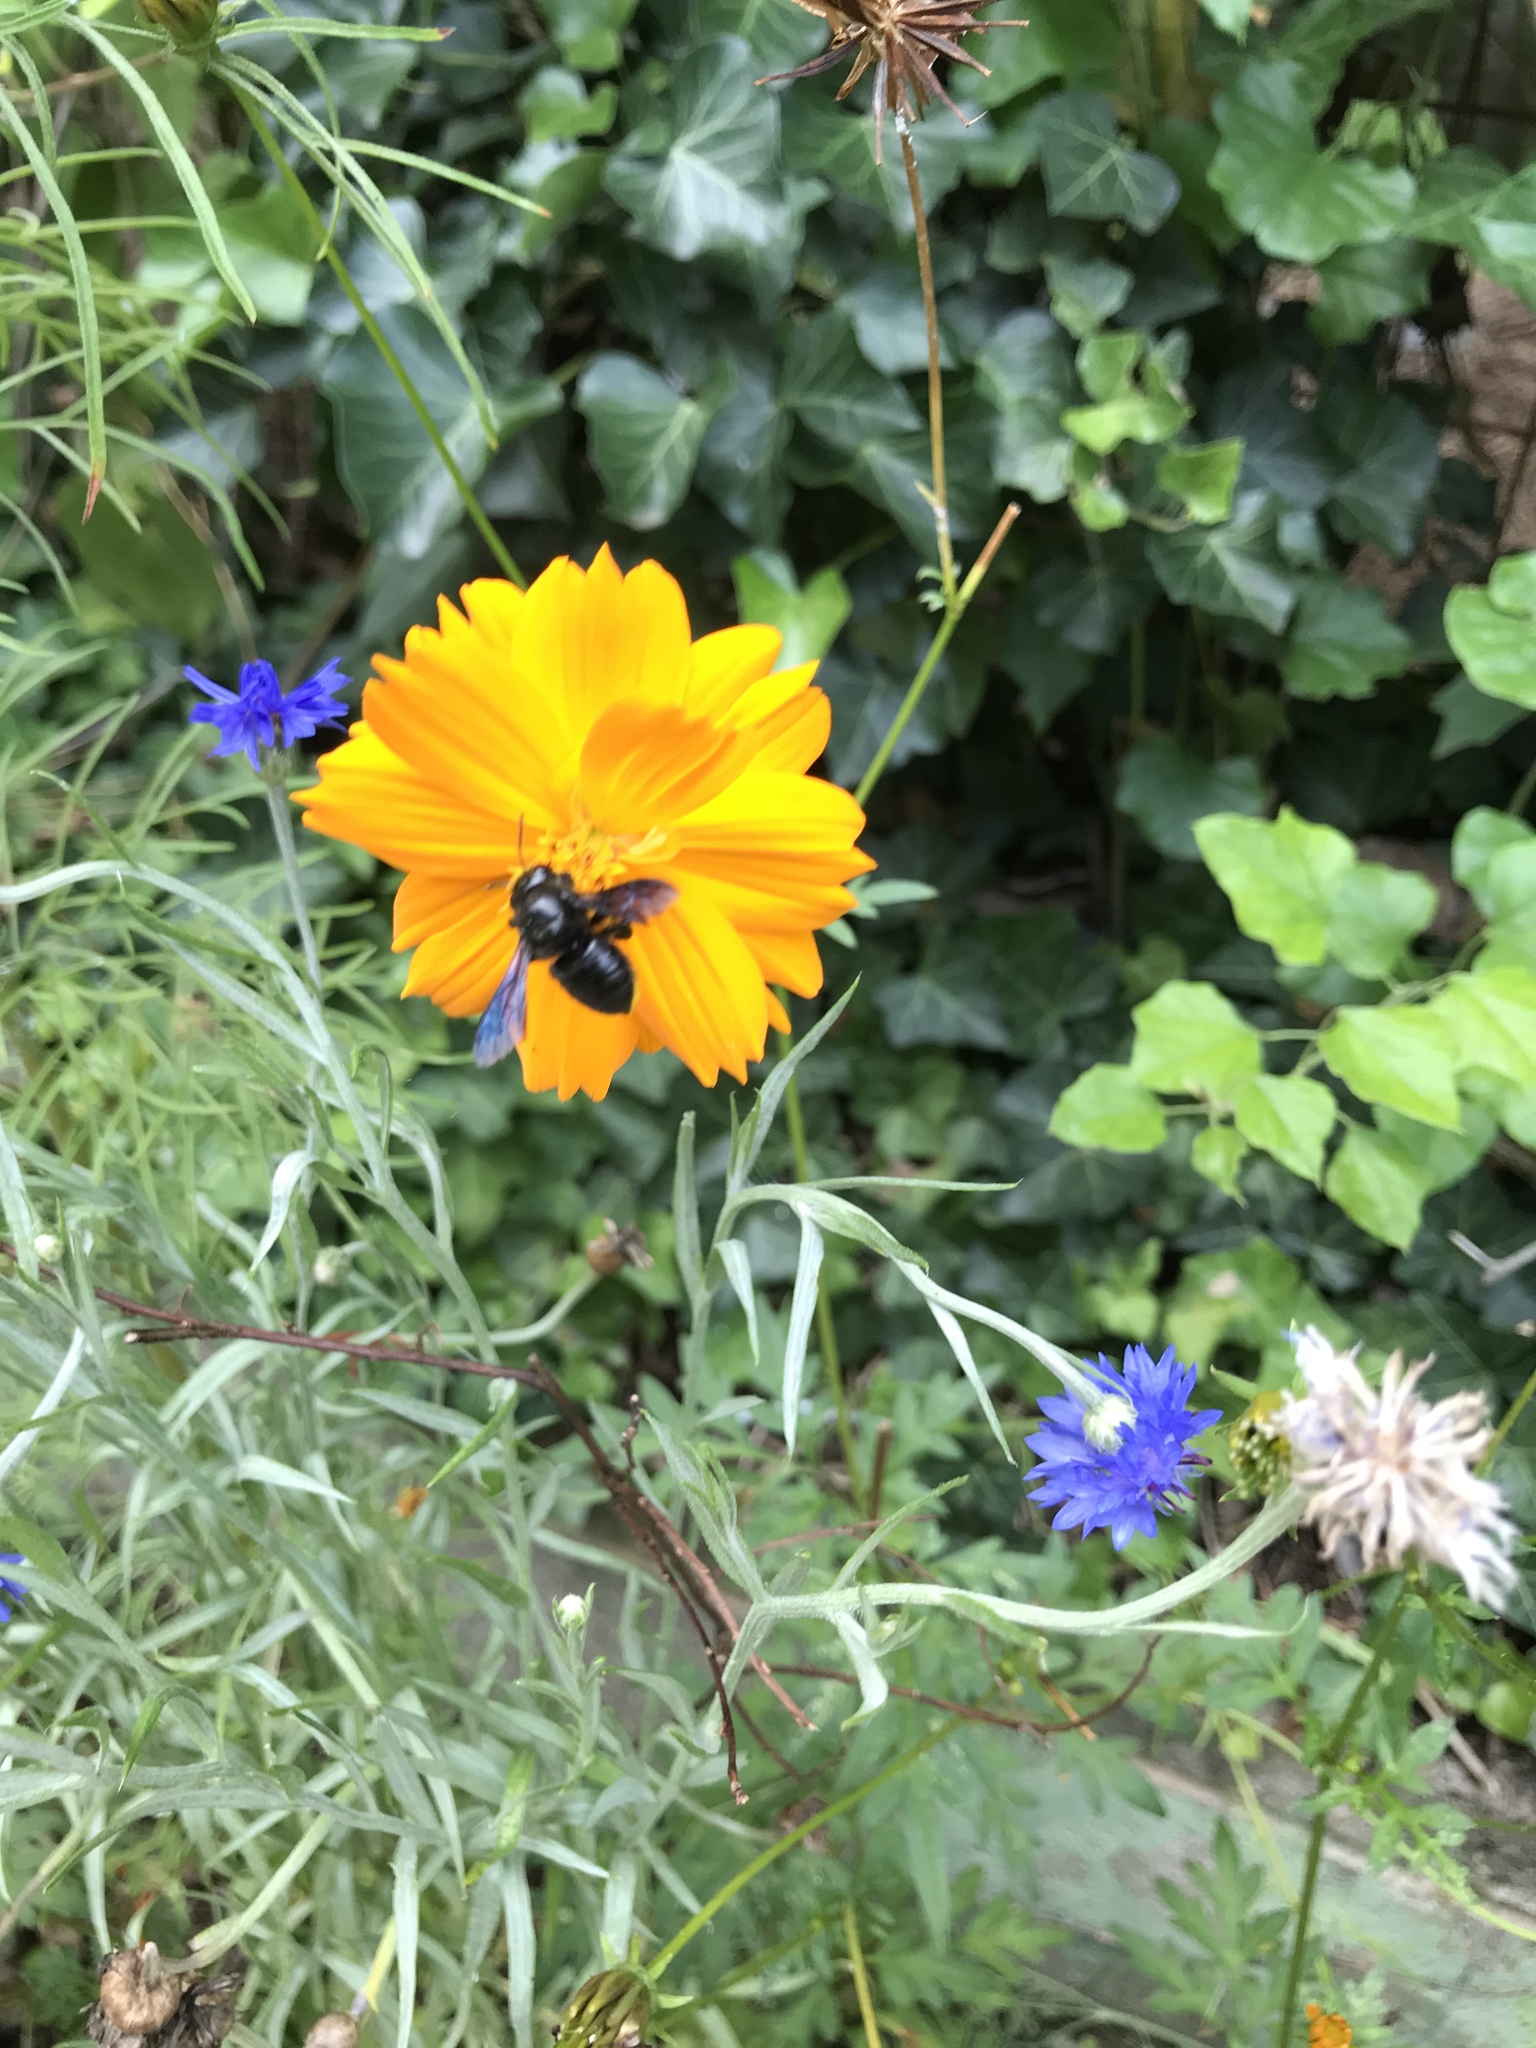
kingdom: Animalia
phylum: Arthropoda
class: Insecta
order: Hymenoptera
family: Megachilidae
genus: Megachile
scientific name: Megachile xylocopoides
